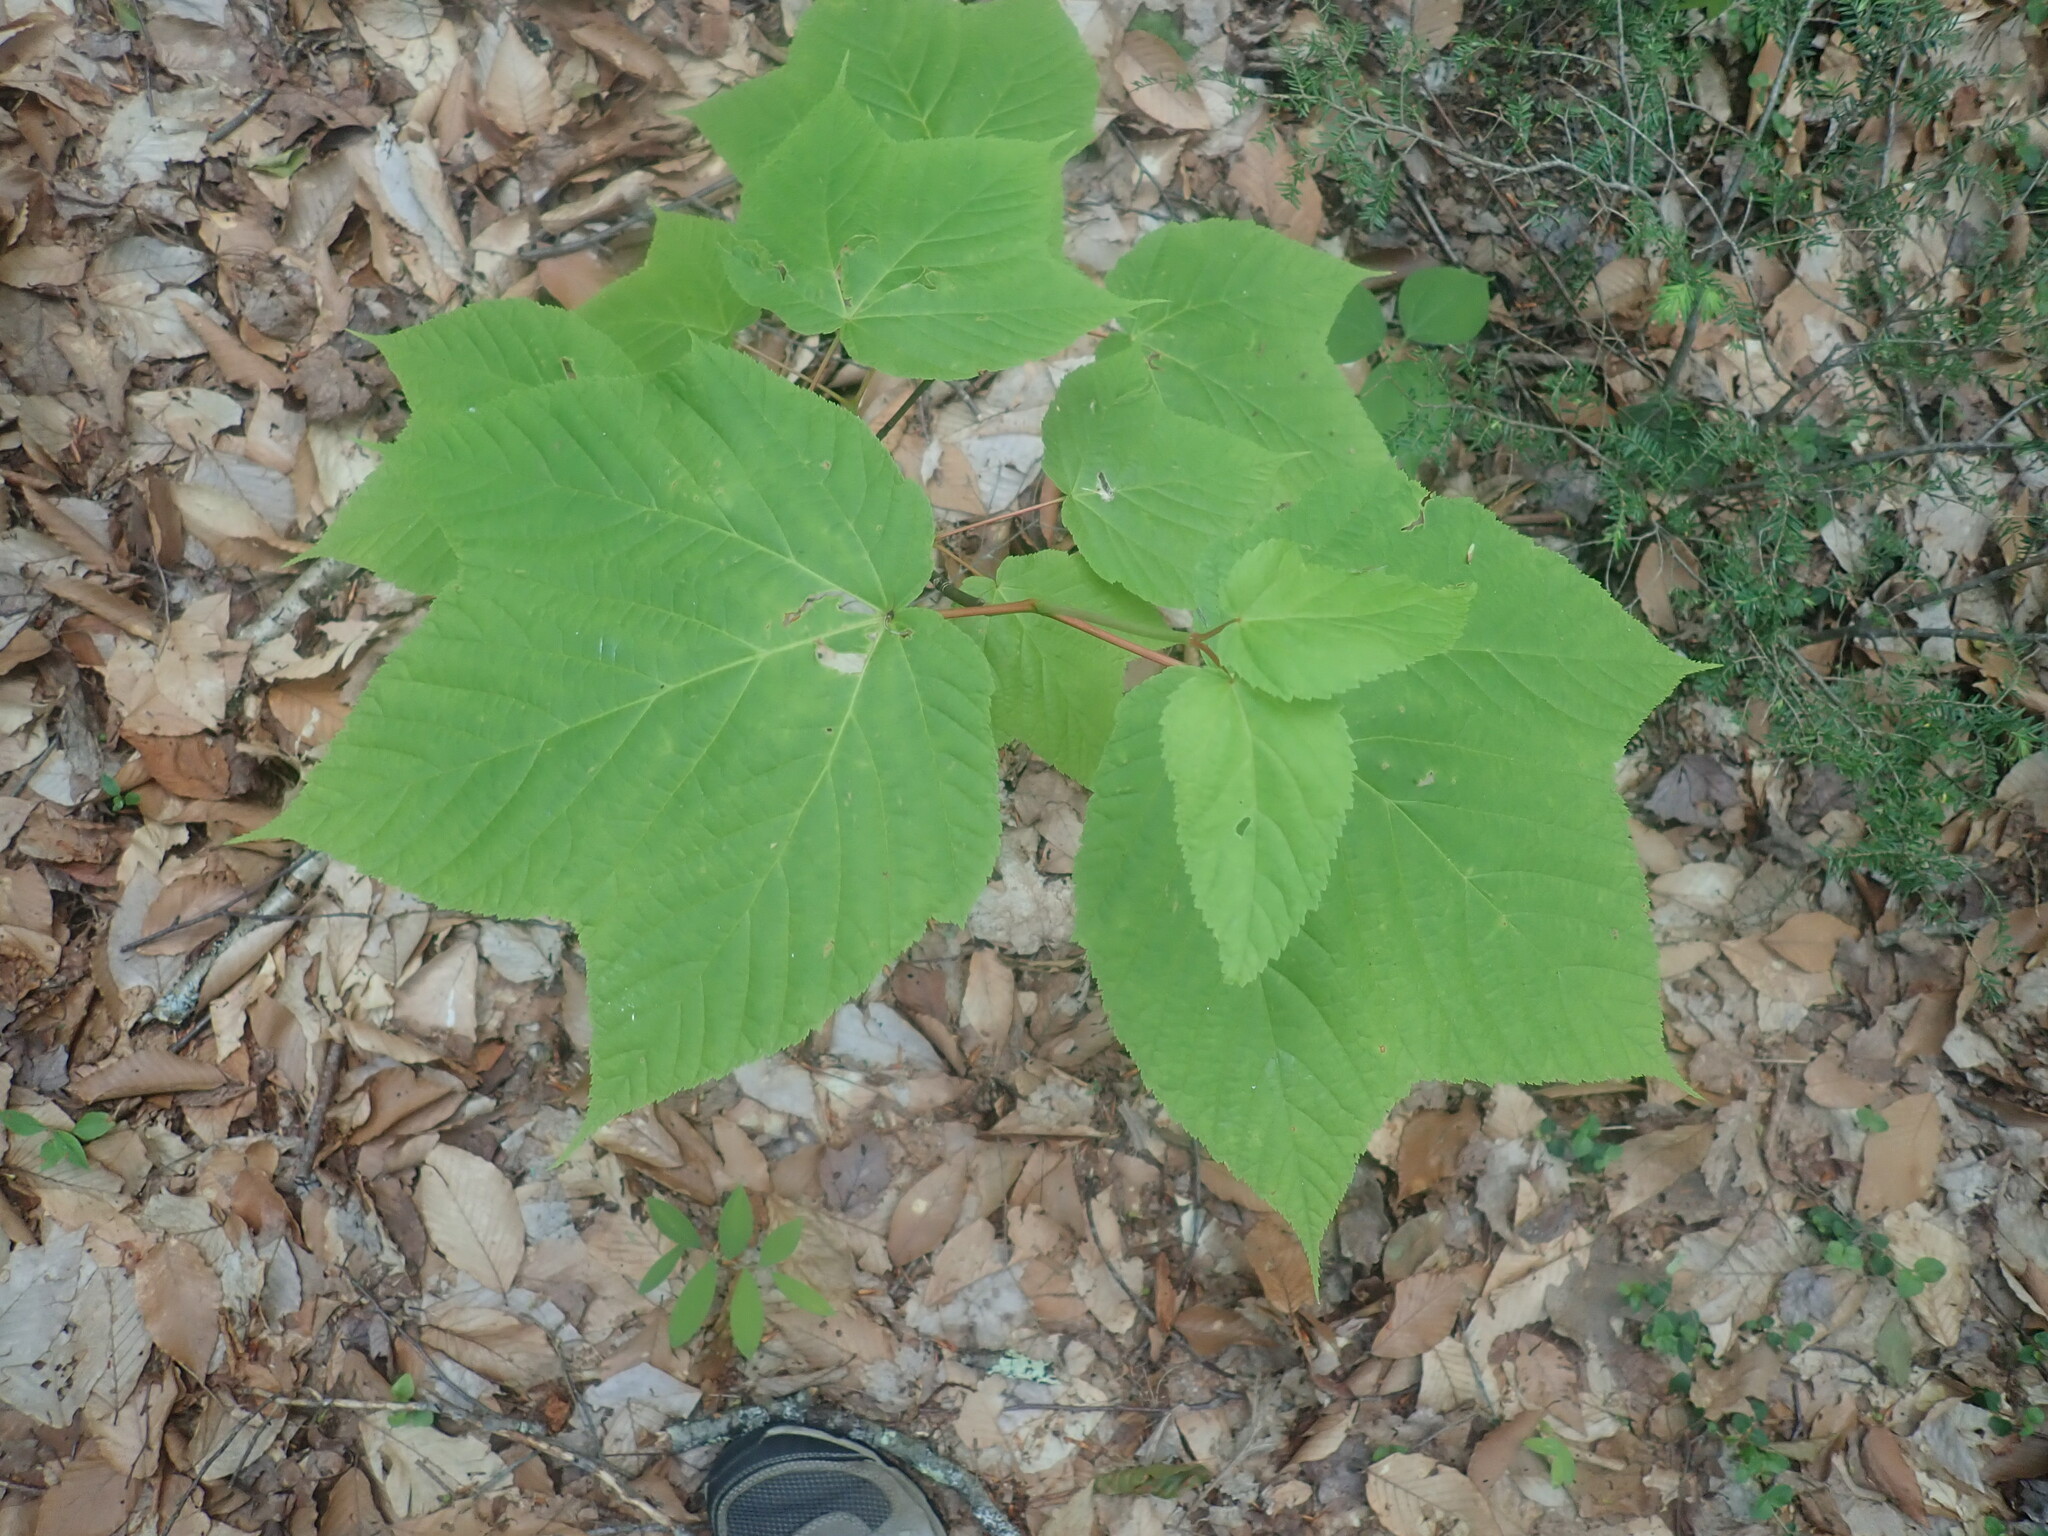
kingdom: Plantae
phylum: Tracheophyta
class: Magnoliopsida
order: Sapindales
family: Sapindaceae
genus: Acer
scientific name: Acer pensylvanicum
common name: Moosewood
